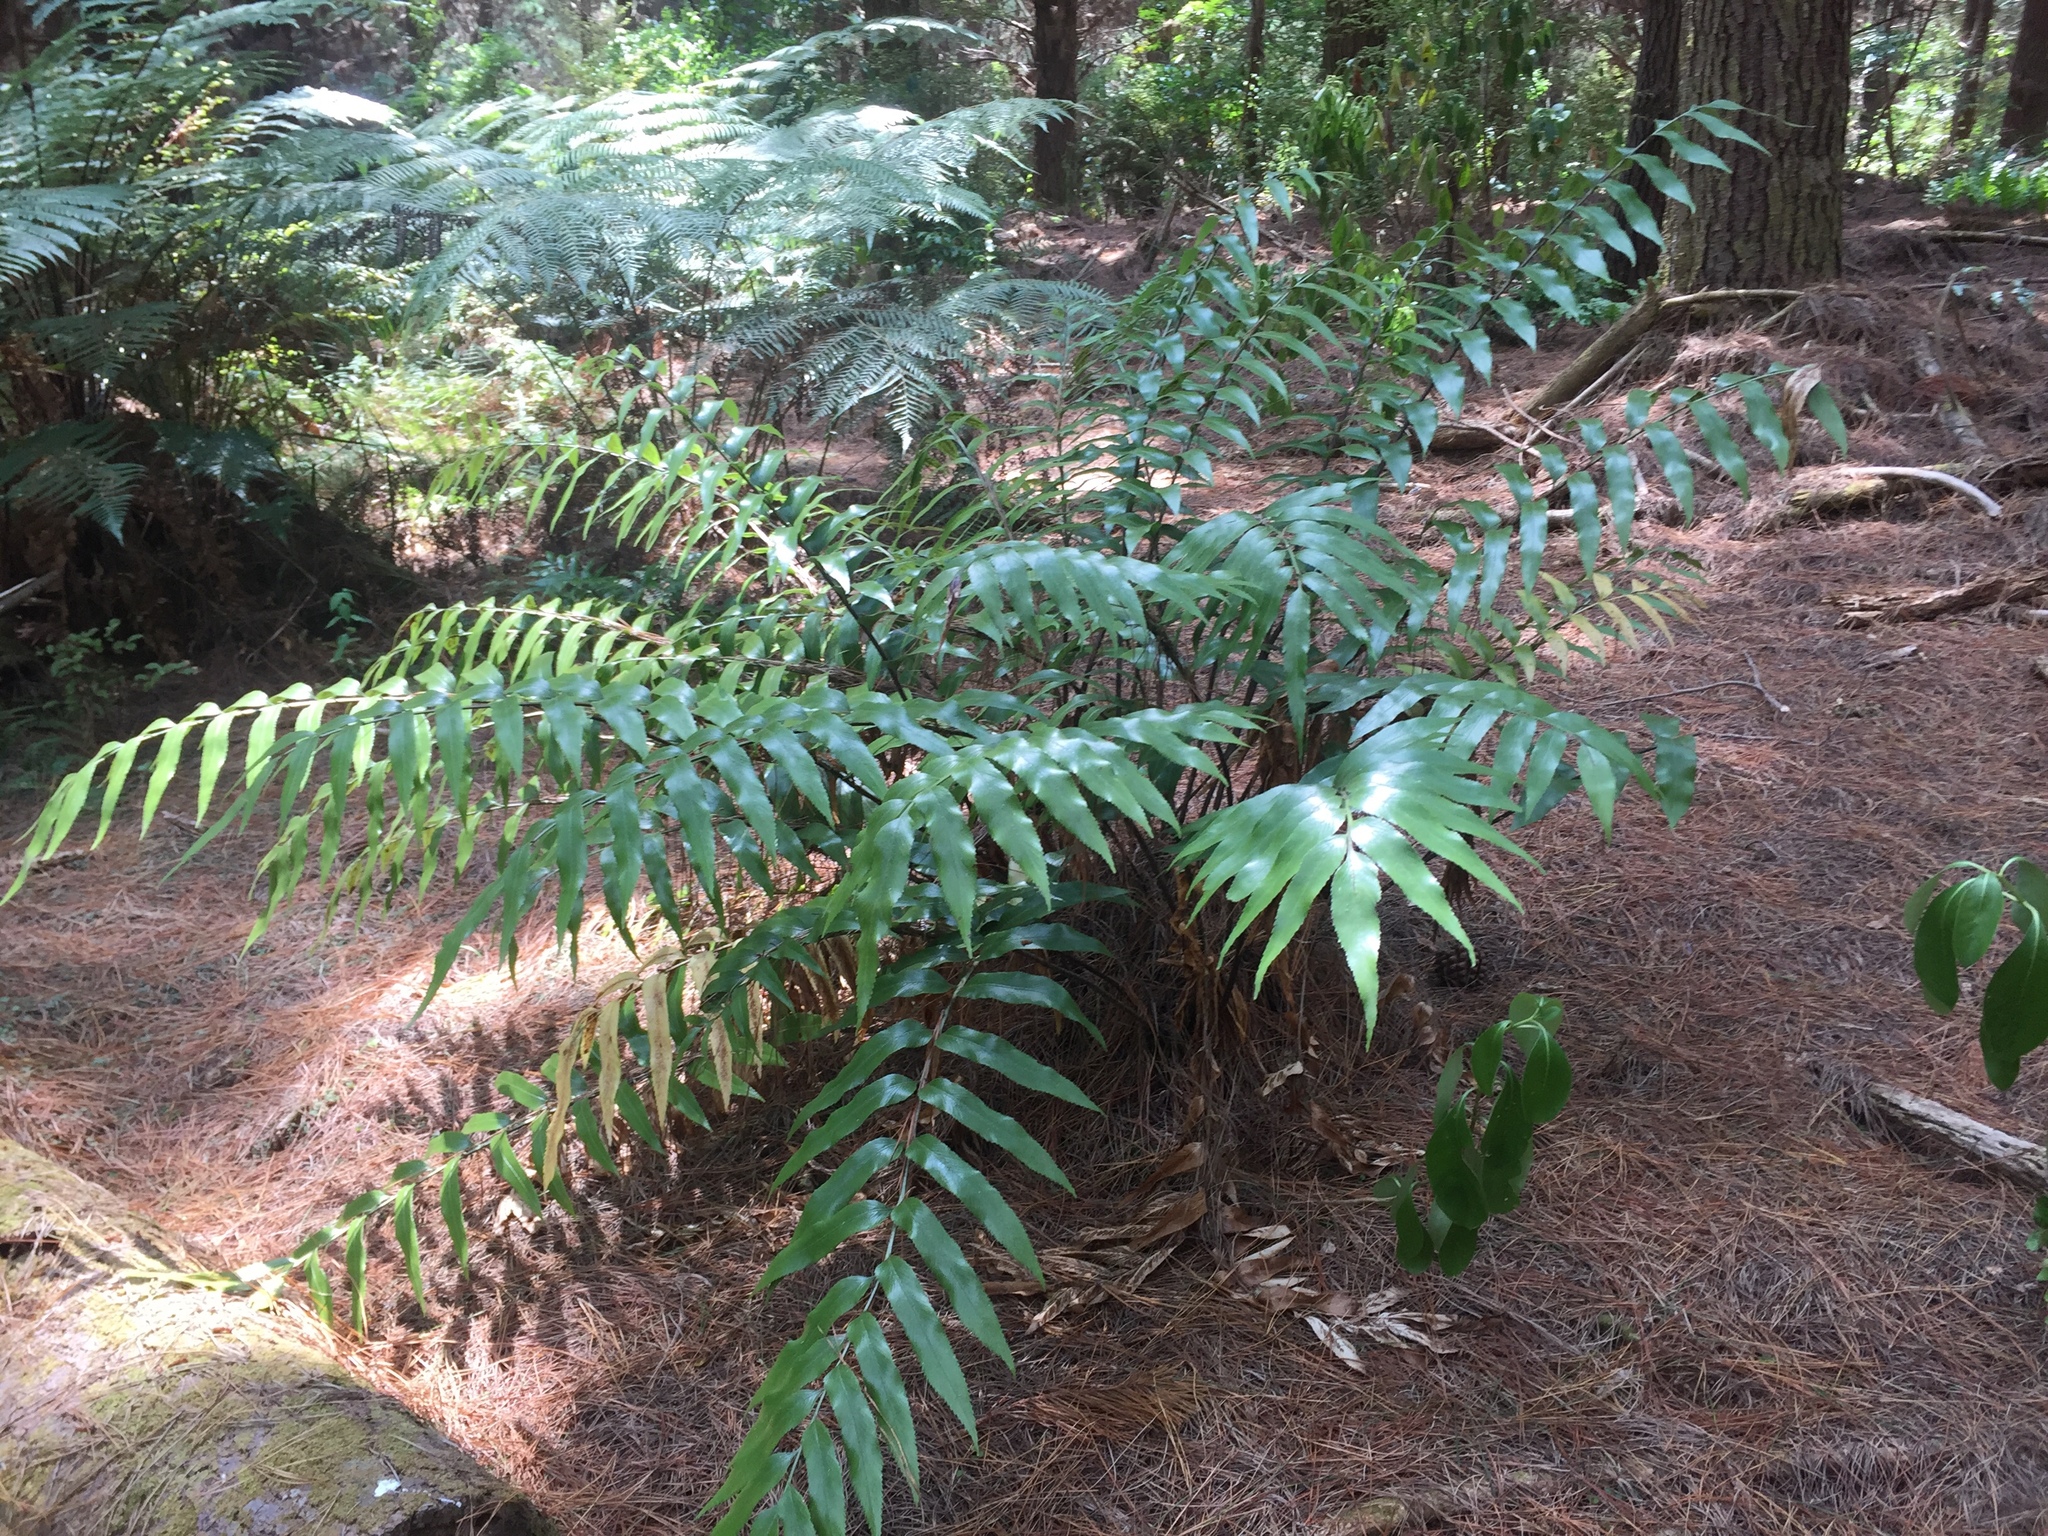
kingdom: Plantae
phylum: Tracheophyta
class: Polypodiopsida
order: Polypodiales
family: Aspleniaceae
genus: Asplenium
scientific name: Asplenium oblongifolium
